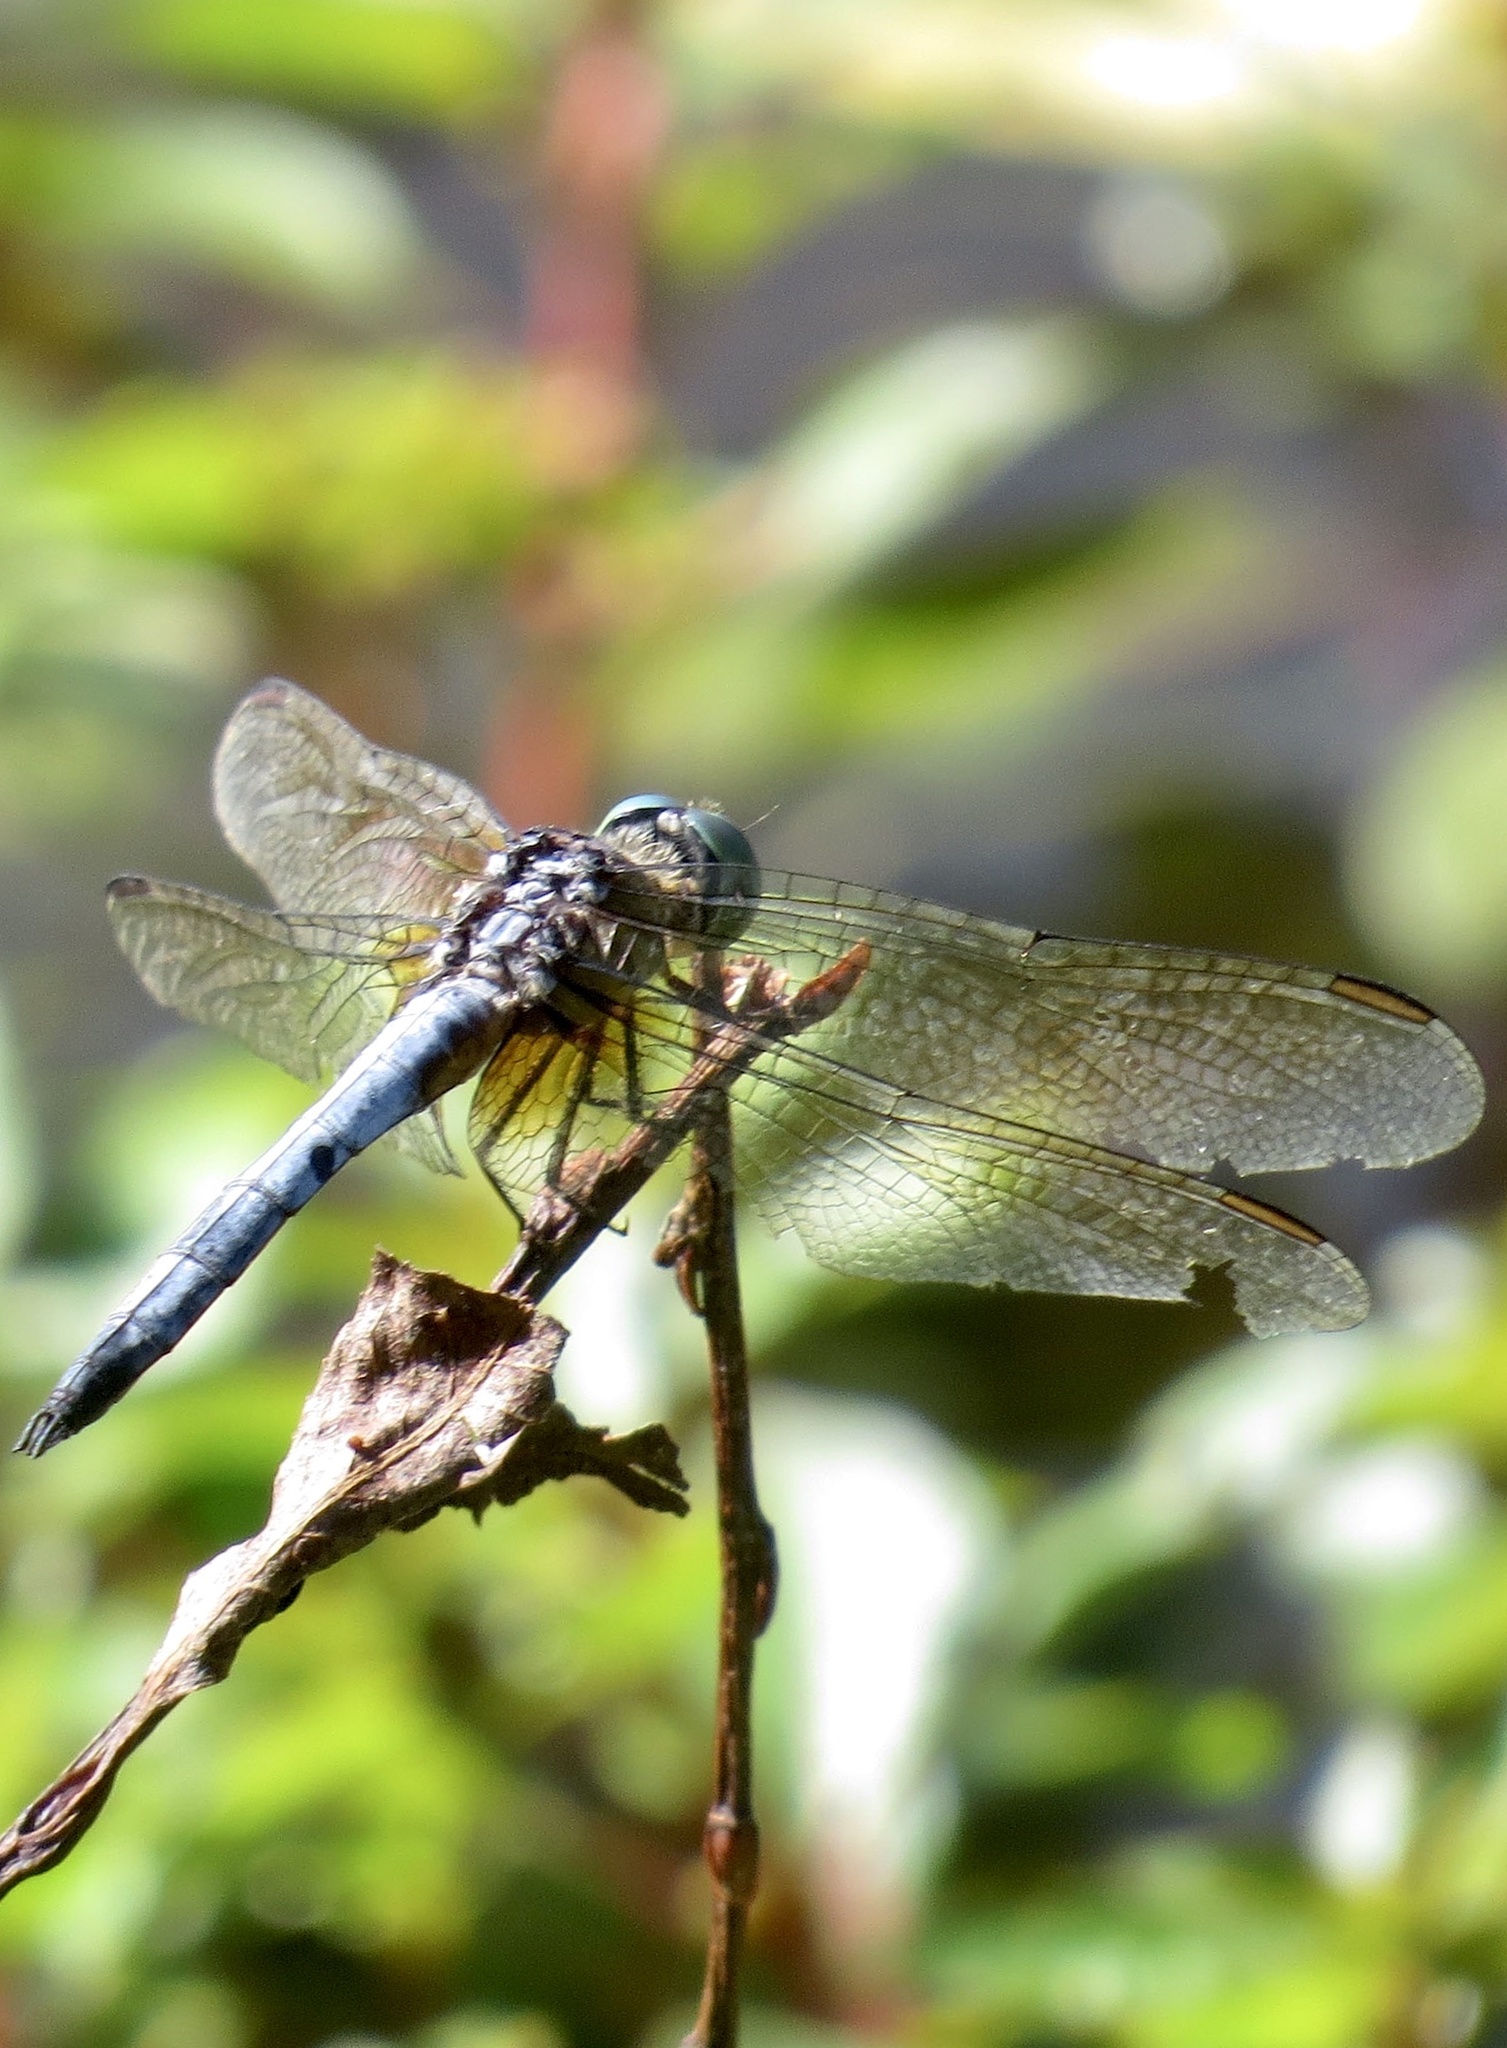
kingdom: Animalia
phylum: Arthropoda
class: Insecta
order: Odonata
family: Libellulidae
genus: Pachydiplax
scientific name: Pachydiplax longipennis
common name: Blue dasher
